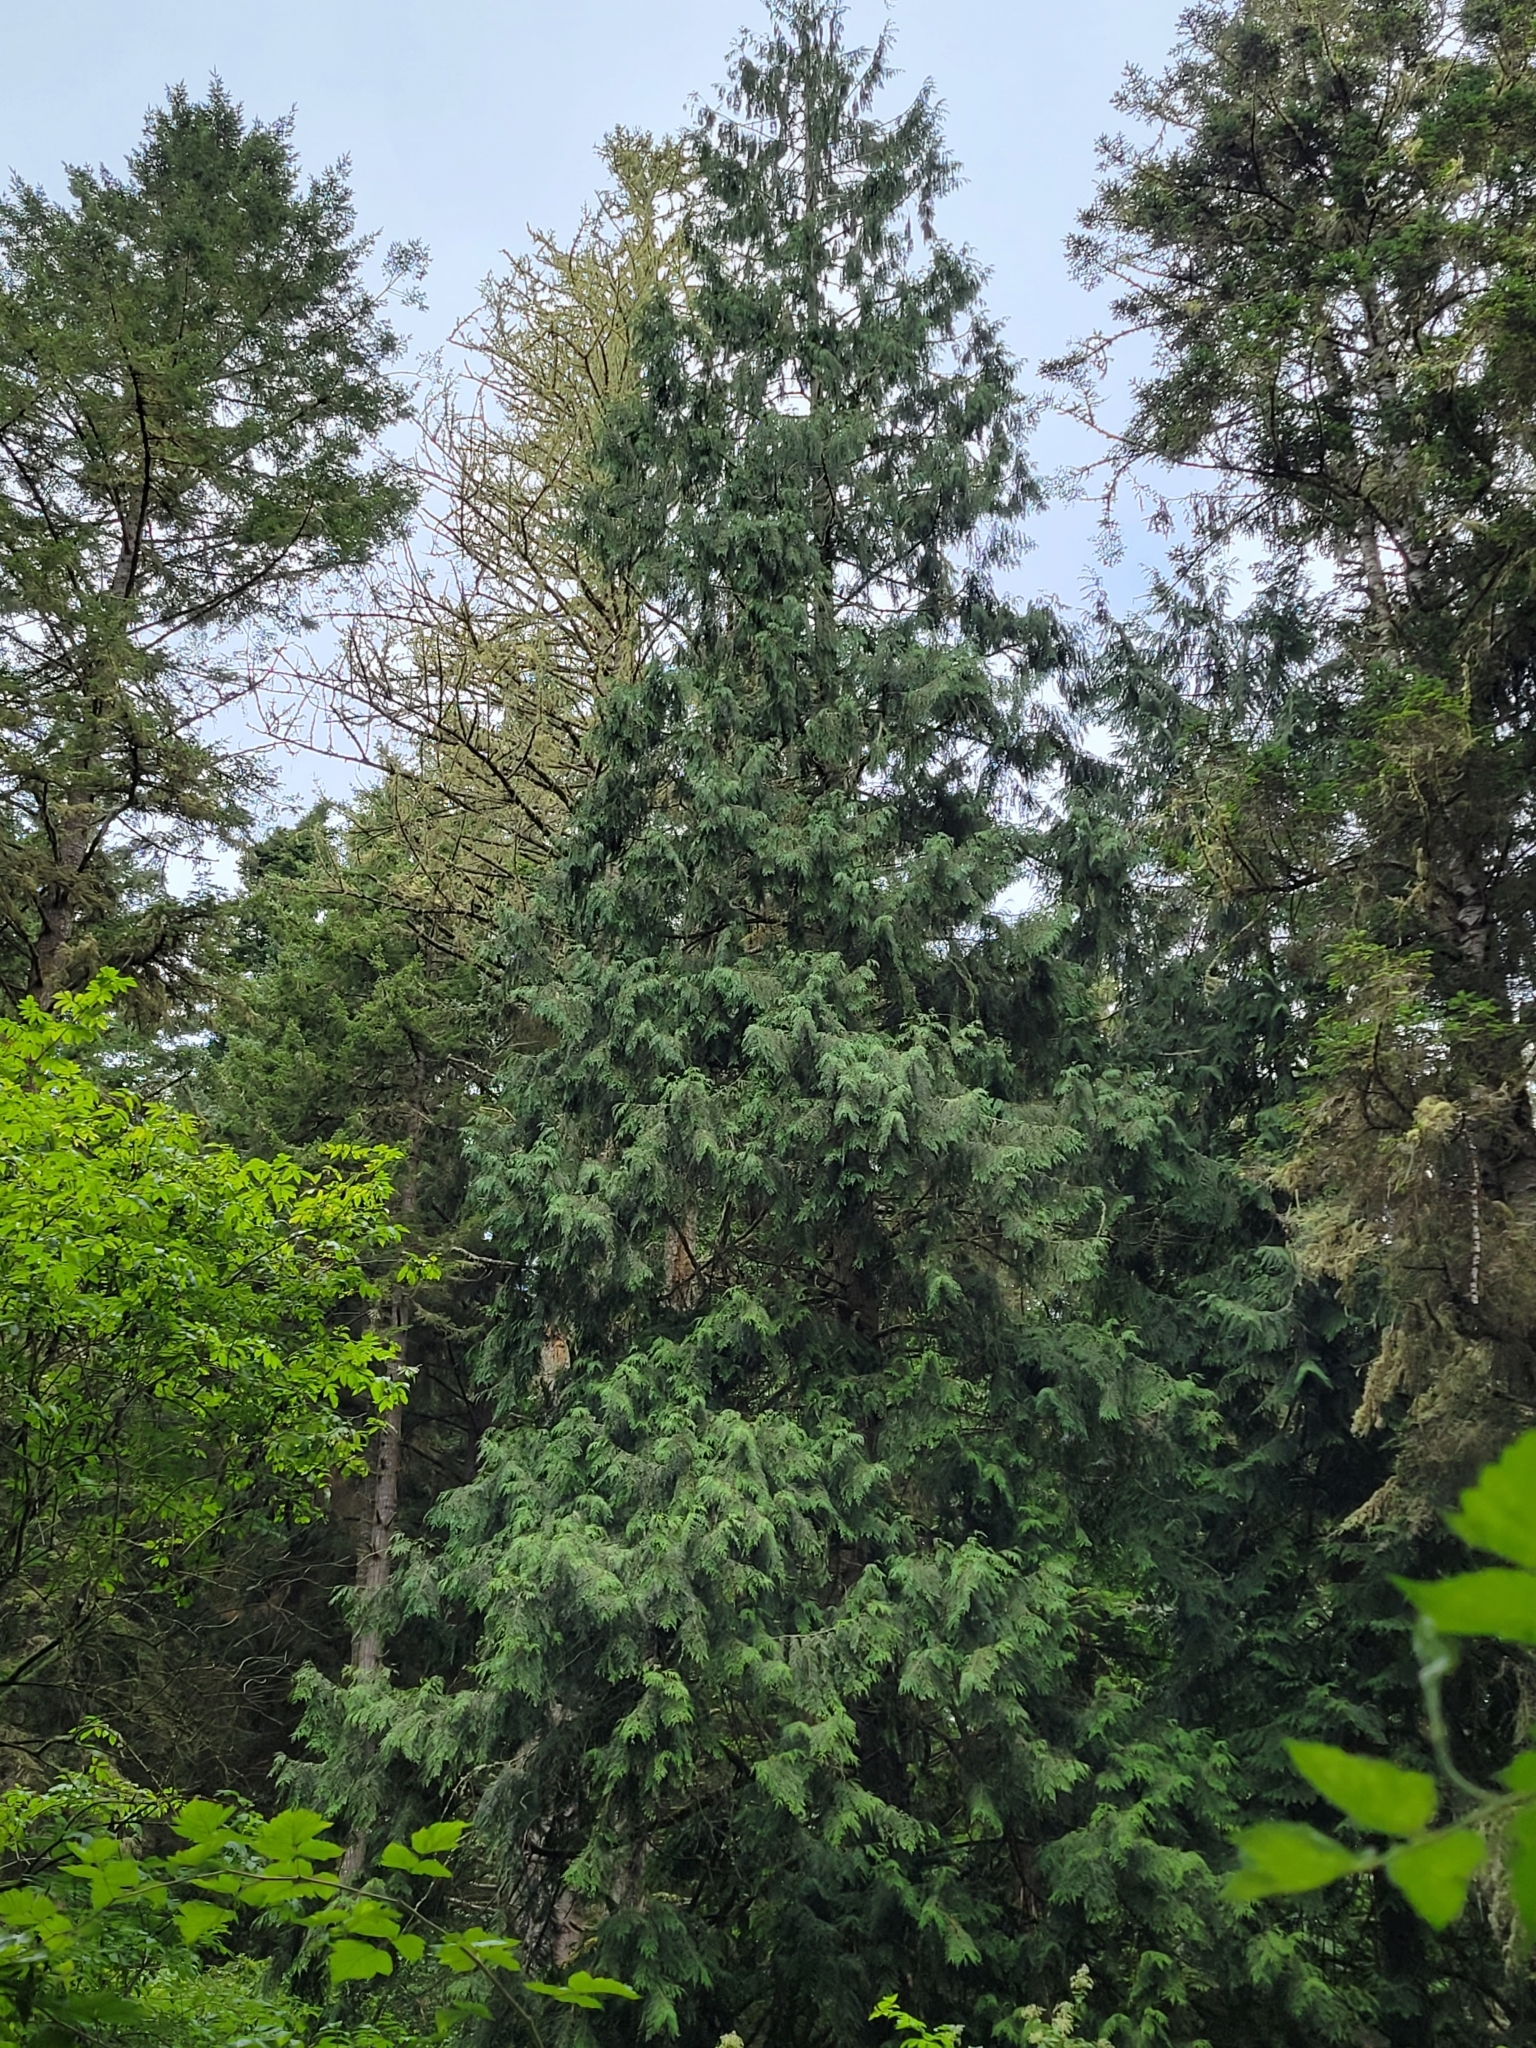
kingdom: Plantae
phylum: Tracheophyta
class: Pinopsida
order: Pinales
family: Cupressaceae
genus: Thuja
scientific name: Thuja plicata
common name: Western red-cedar
